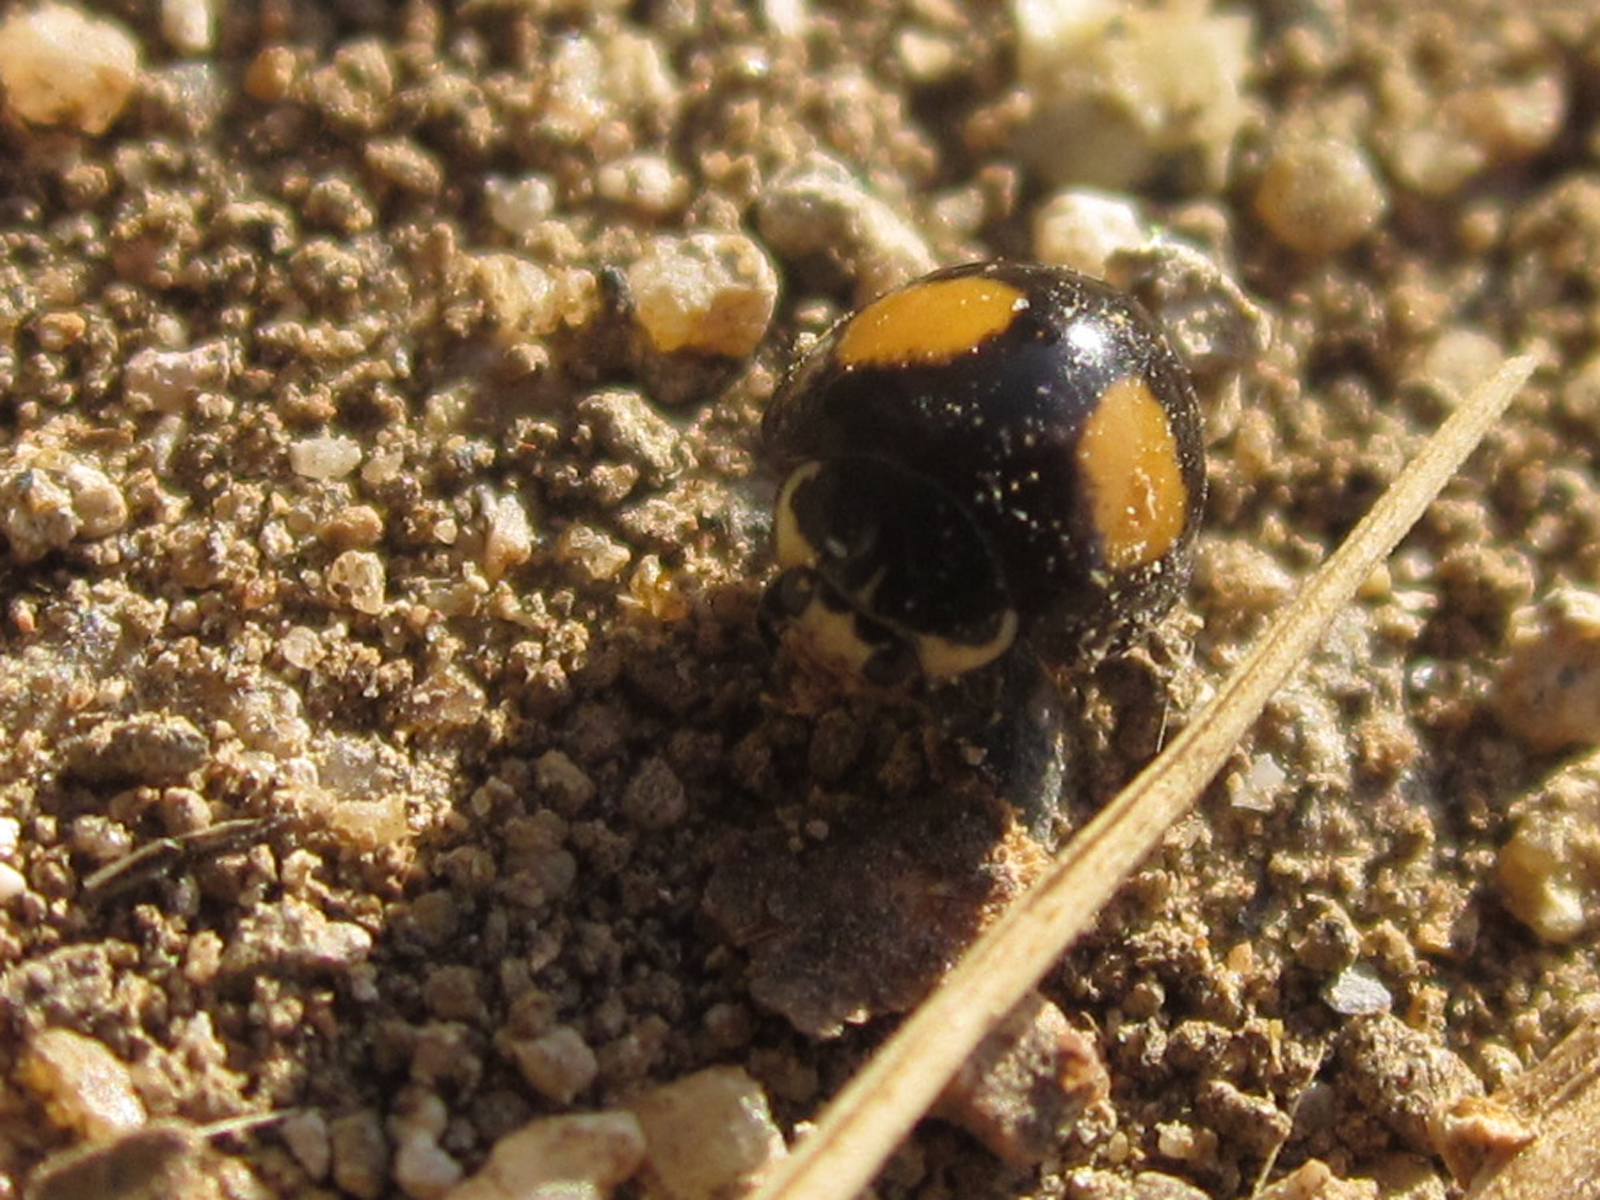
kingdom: Animalia
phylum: Arthropoda
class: Insecta
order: Coleoptera
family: Coccinellidae
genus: Olla
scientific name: Olla v-nigrum
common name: Ashy gray lady beetle
